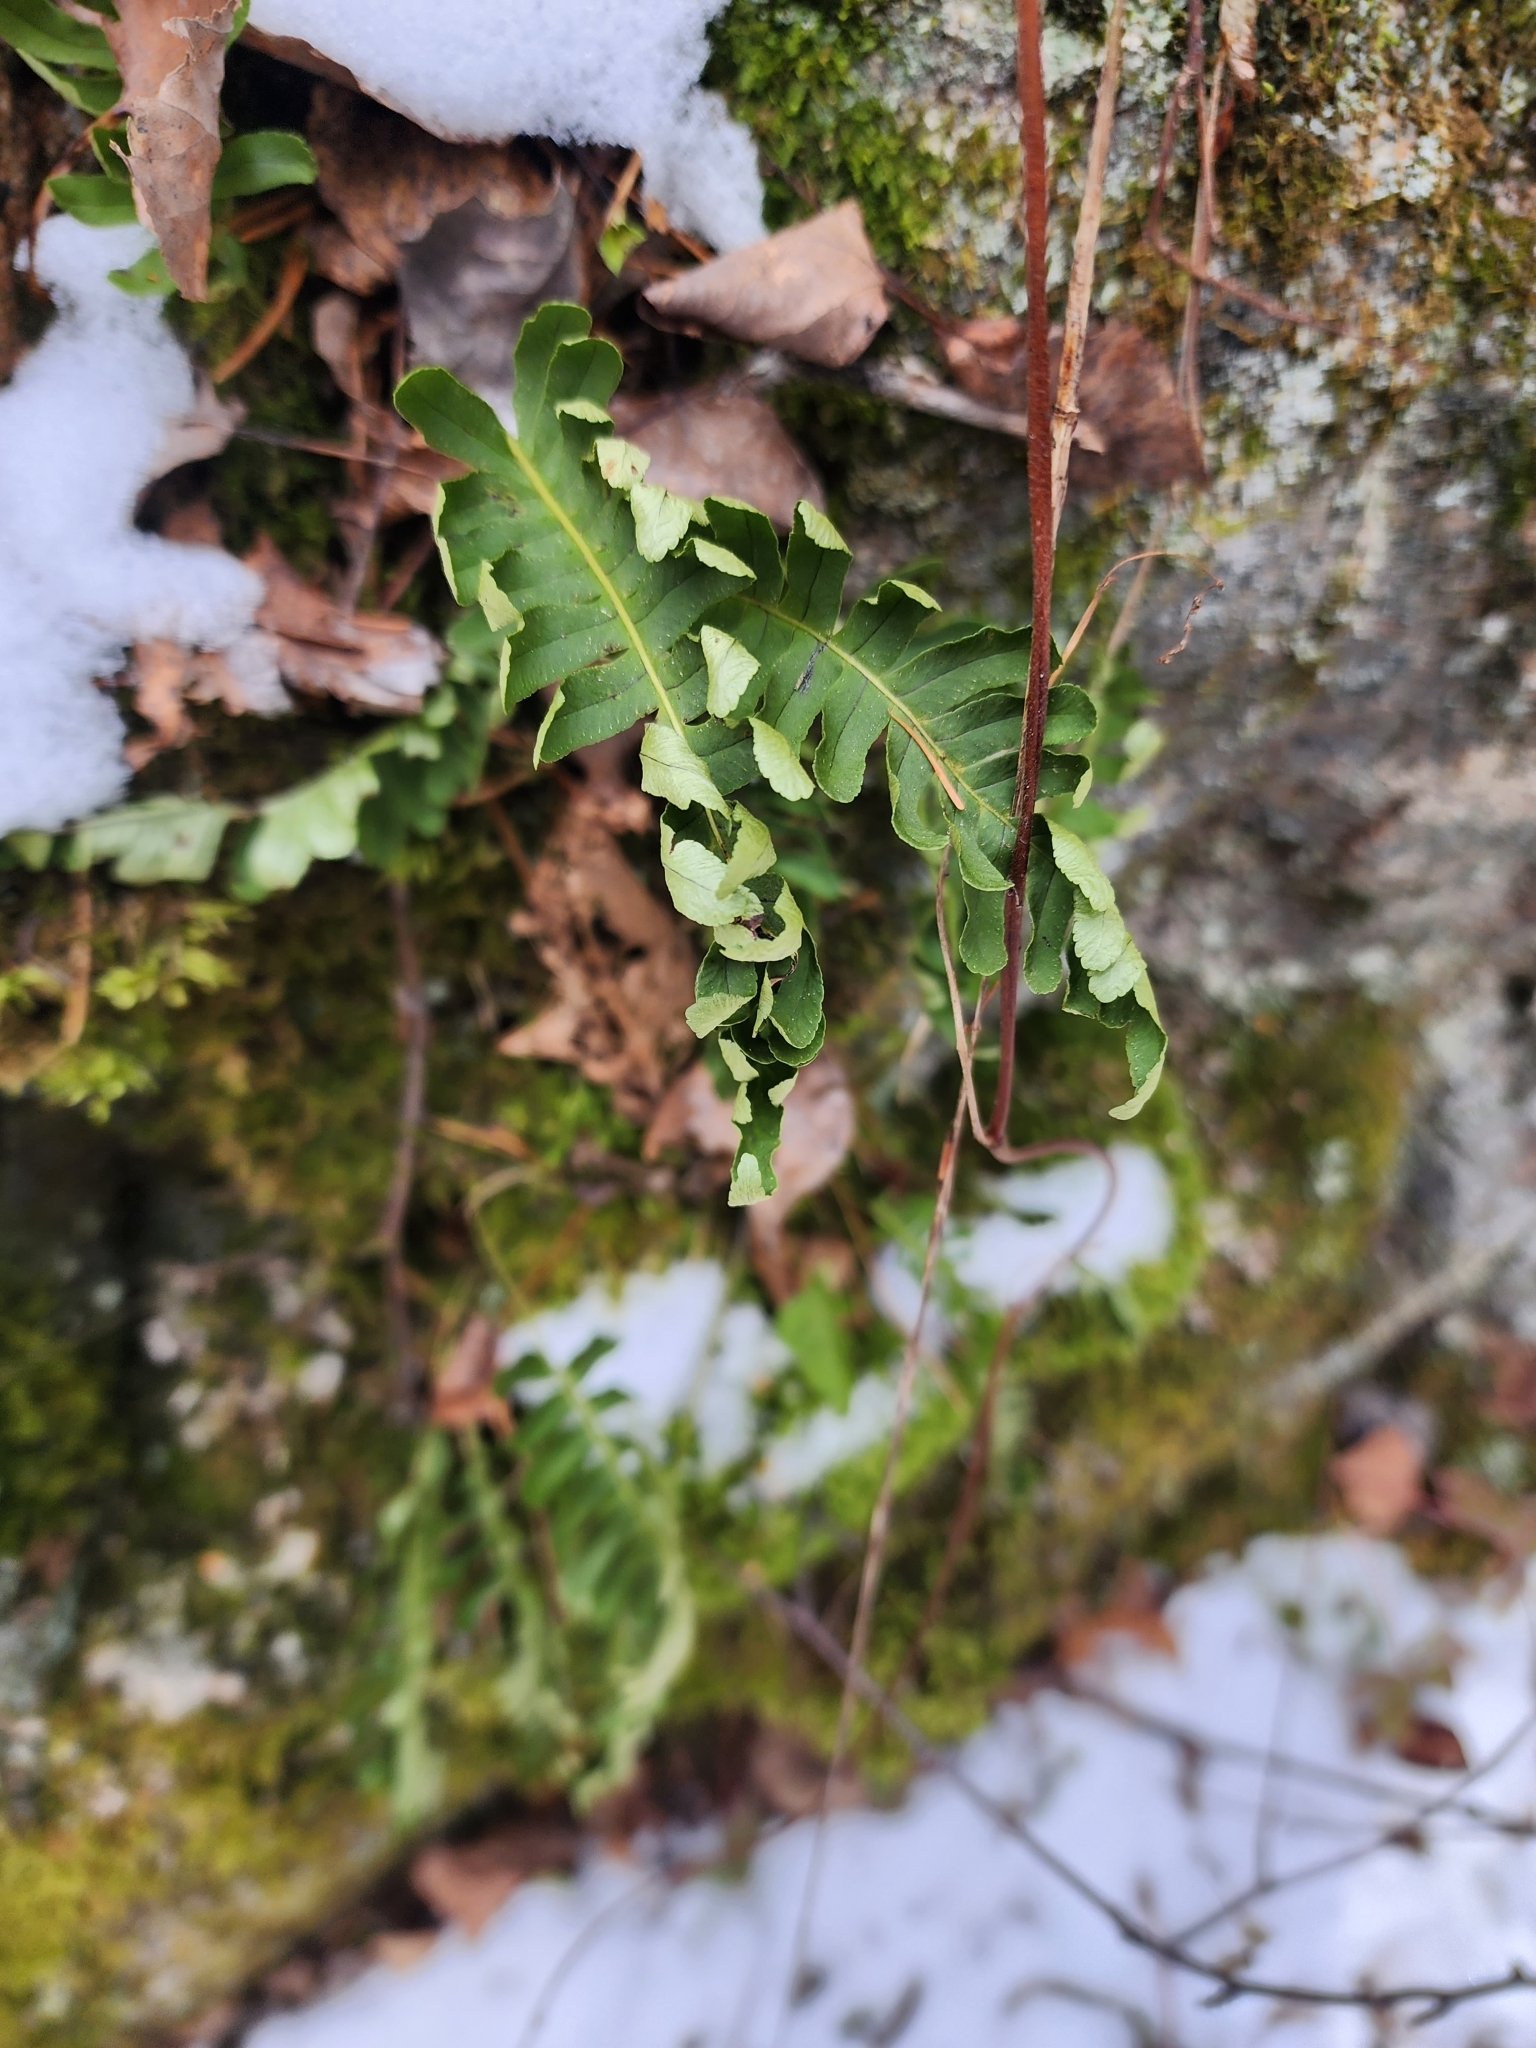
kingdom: Plantae
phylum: Tracheophyta
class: Polypodiopsida
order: Polypodiales
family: Polypodiaceae
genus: Polypodium
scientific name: Polypodium virginianum
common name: American wall fern
